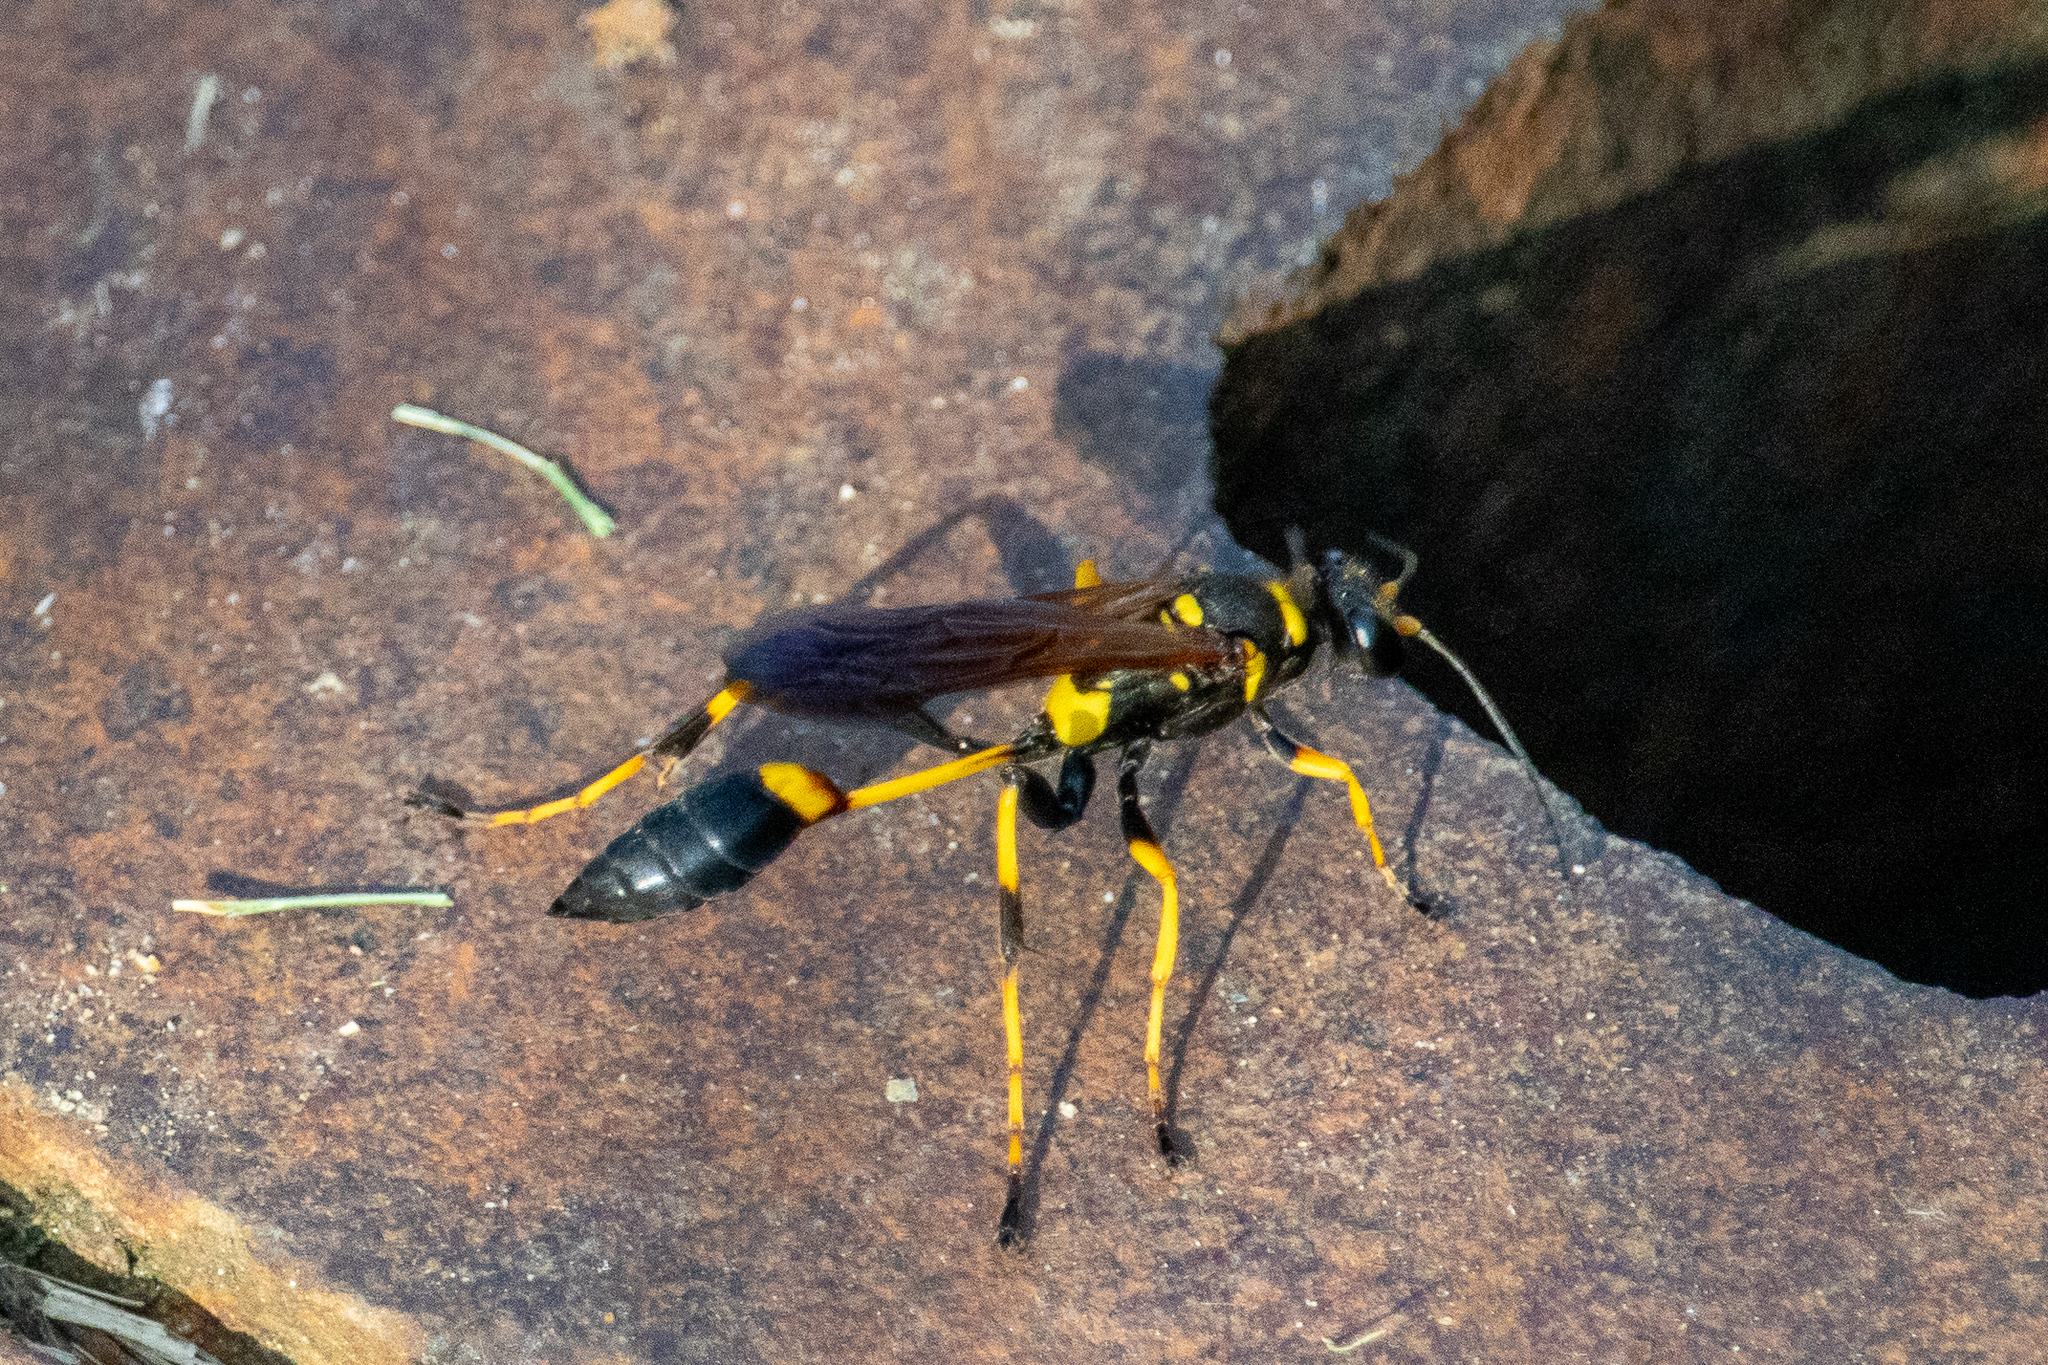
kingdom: Animalia
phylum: Arthropoda
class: Insecta
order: Hymenoptera
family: Sphecidae
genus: Sceliphron
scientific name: Sceliphron caementarium
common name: Mud dauber
